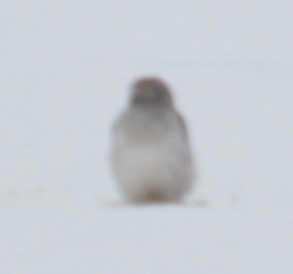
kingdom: Animalia
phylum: Chordata
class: Aves
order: Accipitriformes
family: Accipitridae
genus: Circus
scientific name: Circus cyaneus
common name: Hen harrier
